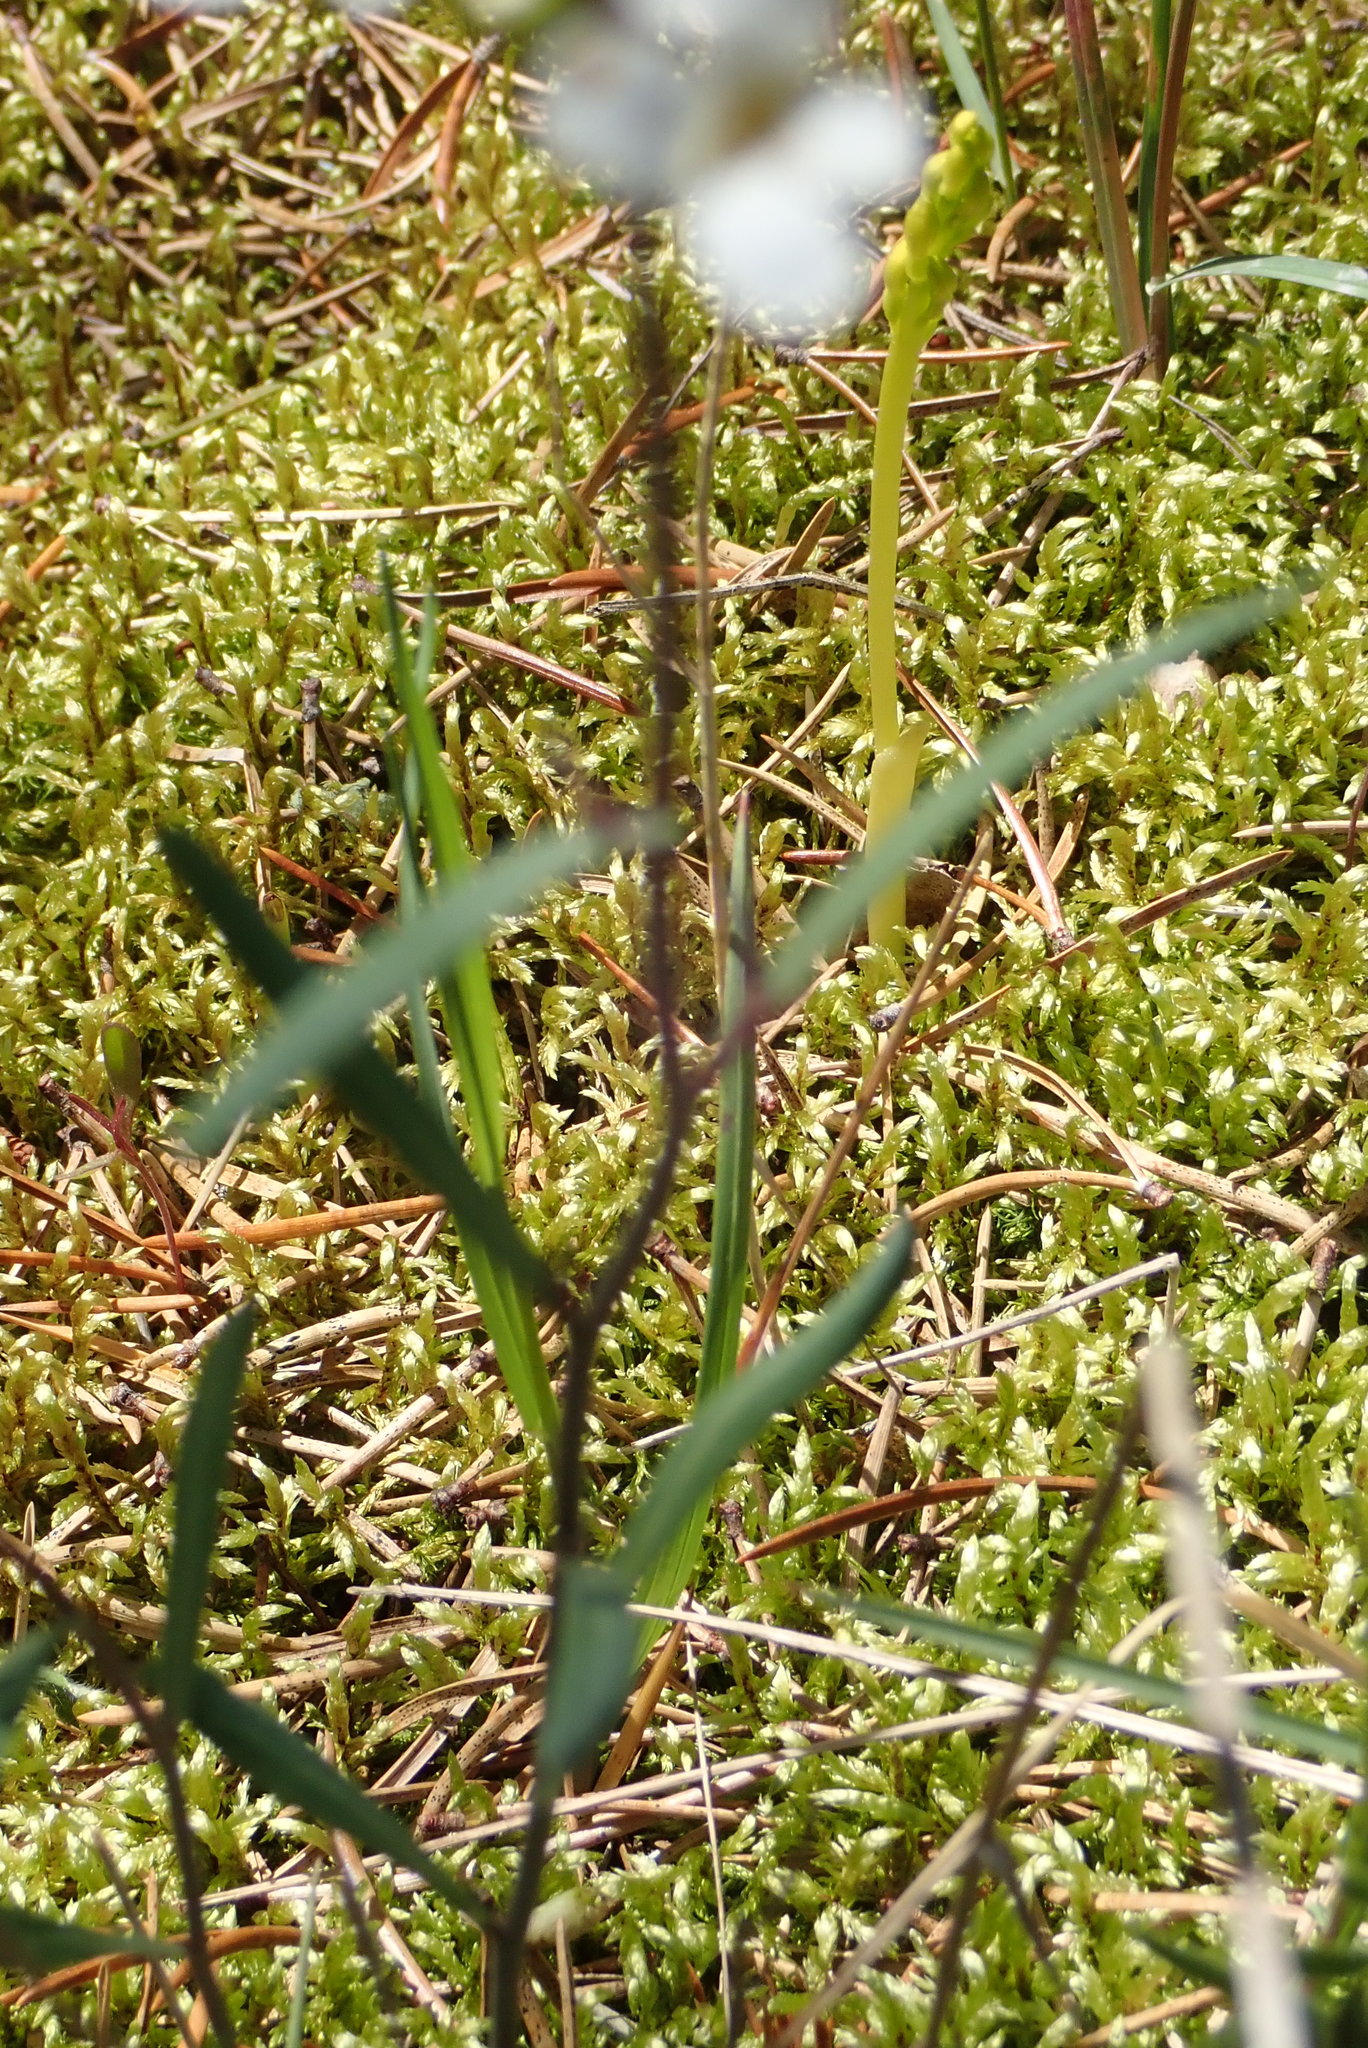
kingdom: Plantae
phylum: Tracheophyta
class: Magnoliopsida
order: Brassicales
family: Brassicaceae
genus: Arabidopsis
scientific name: Arabidopsis lyrata
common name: Lyrate rockcress
